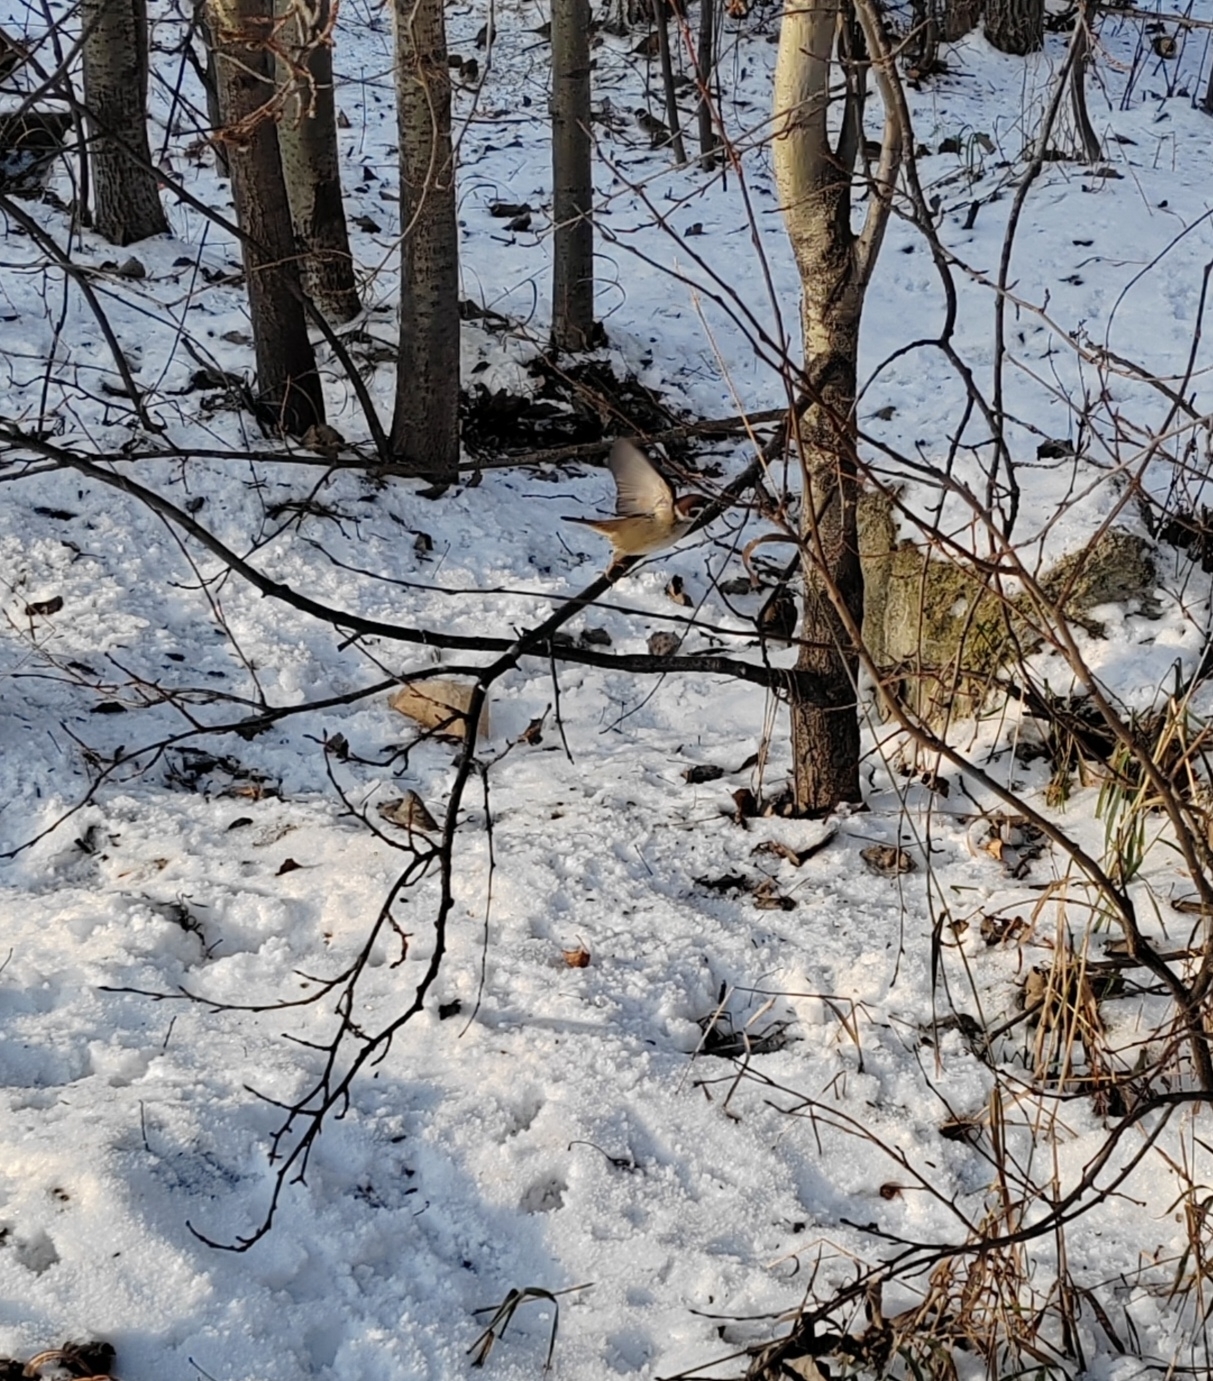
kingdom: Plantae
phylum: Tracheophyta
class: Magnoliopsida
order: Malpighiales
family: Salicaceae
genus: Populus
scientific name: Populus tremula
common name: European aspen
